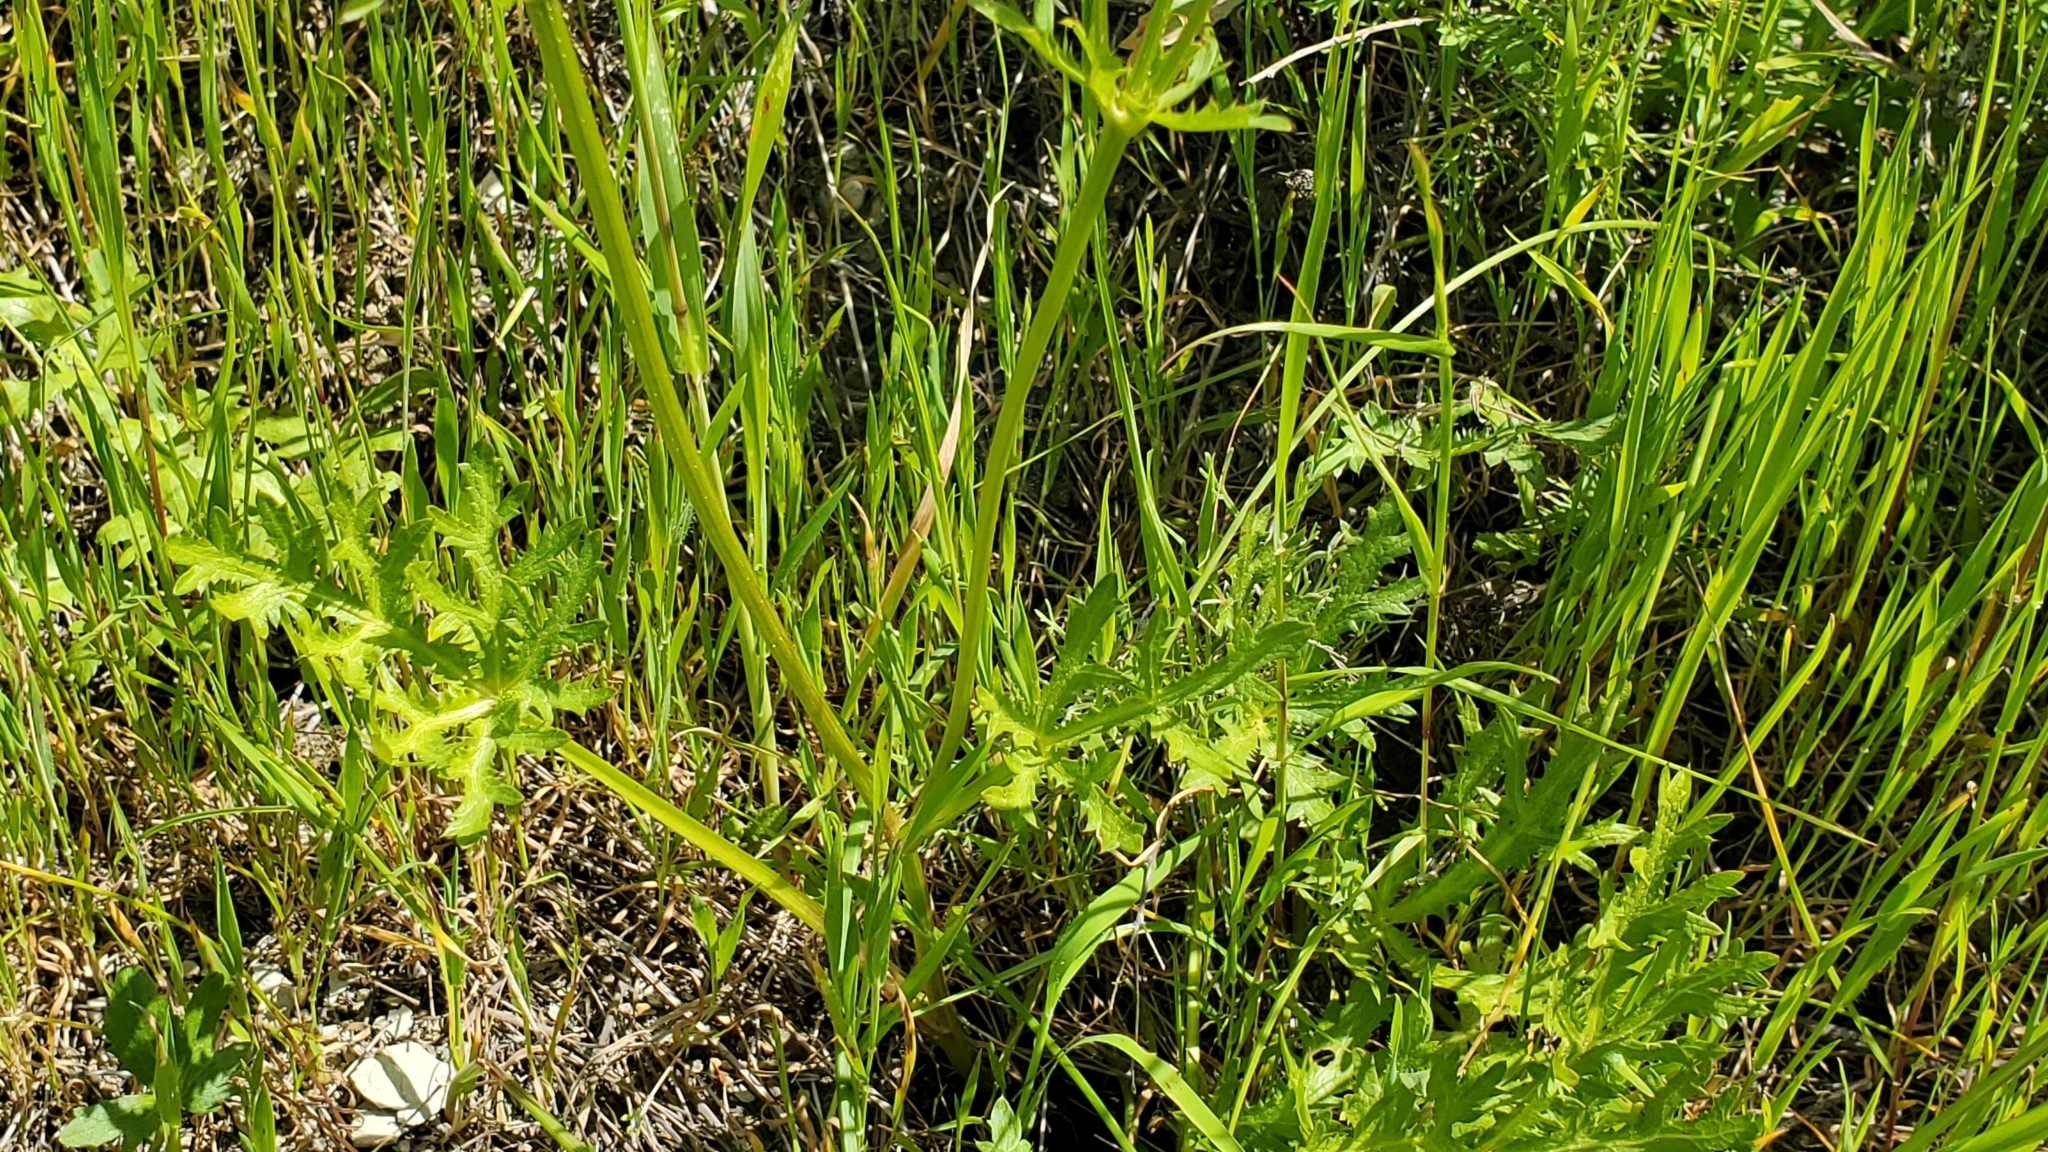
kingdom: Plantae
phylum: Tracheophyta
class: Magnoliopsida
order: Apiales
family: Apiaceae
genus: Sanicula
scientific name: Sanicula arguta
